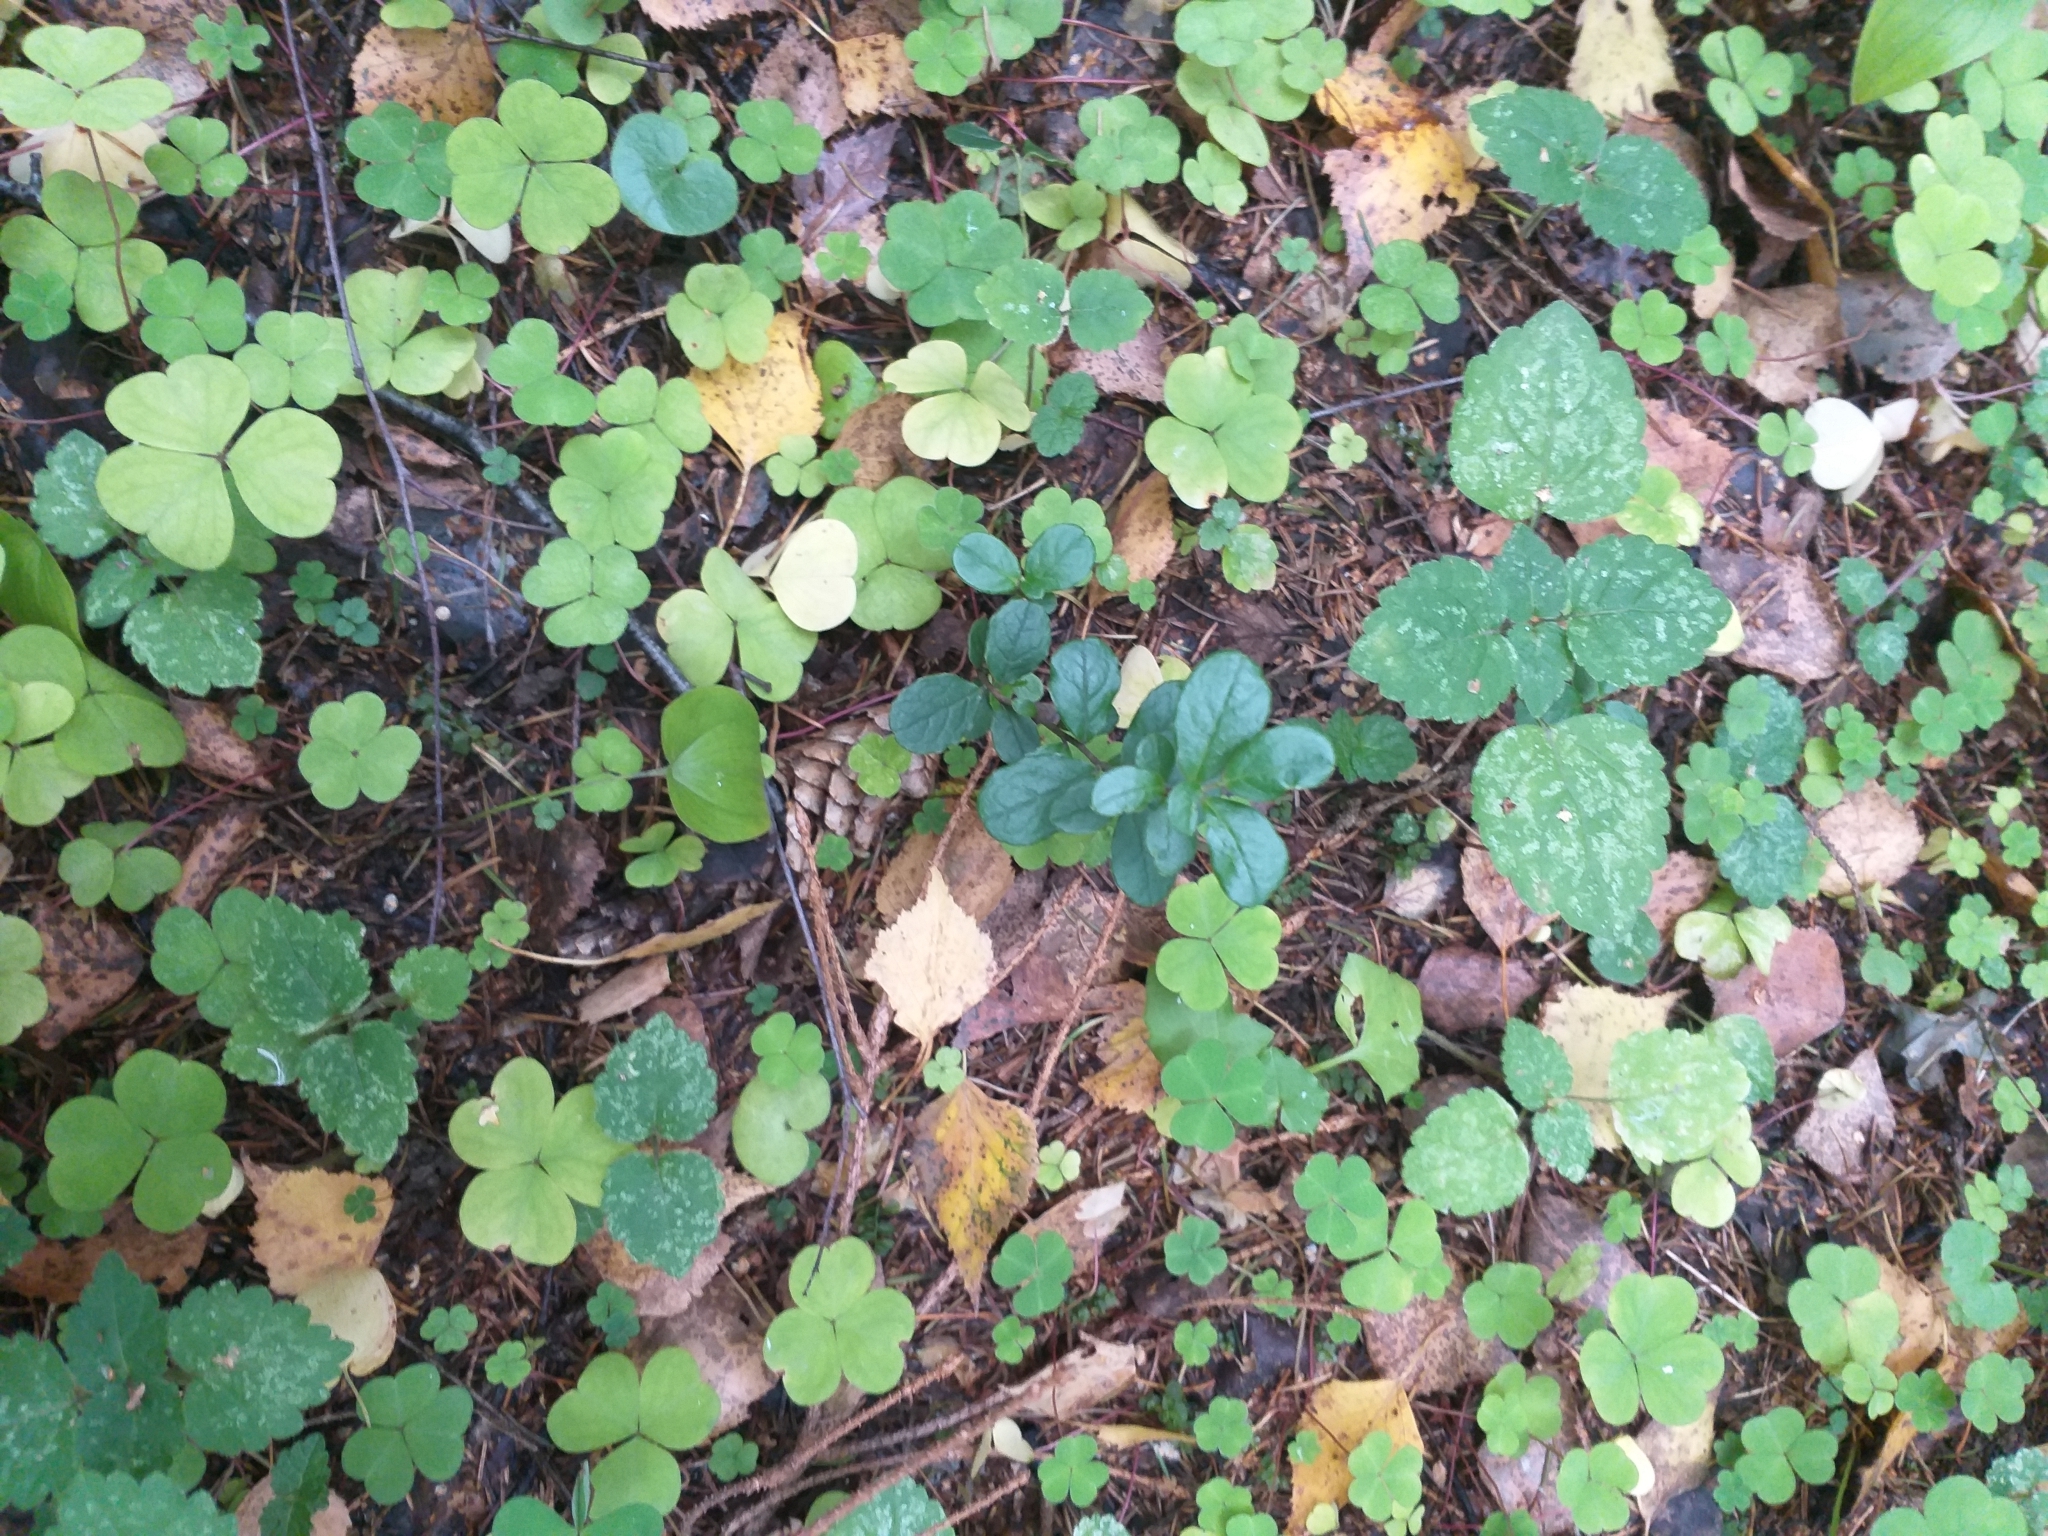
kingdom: Plantae
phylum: Tracheophyta
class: Magnoliopsida
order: Ericales
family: Ericaceae
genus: Vaccinium
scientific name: Vaccinium vitis-idaea
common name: Cowberry
